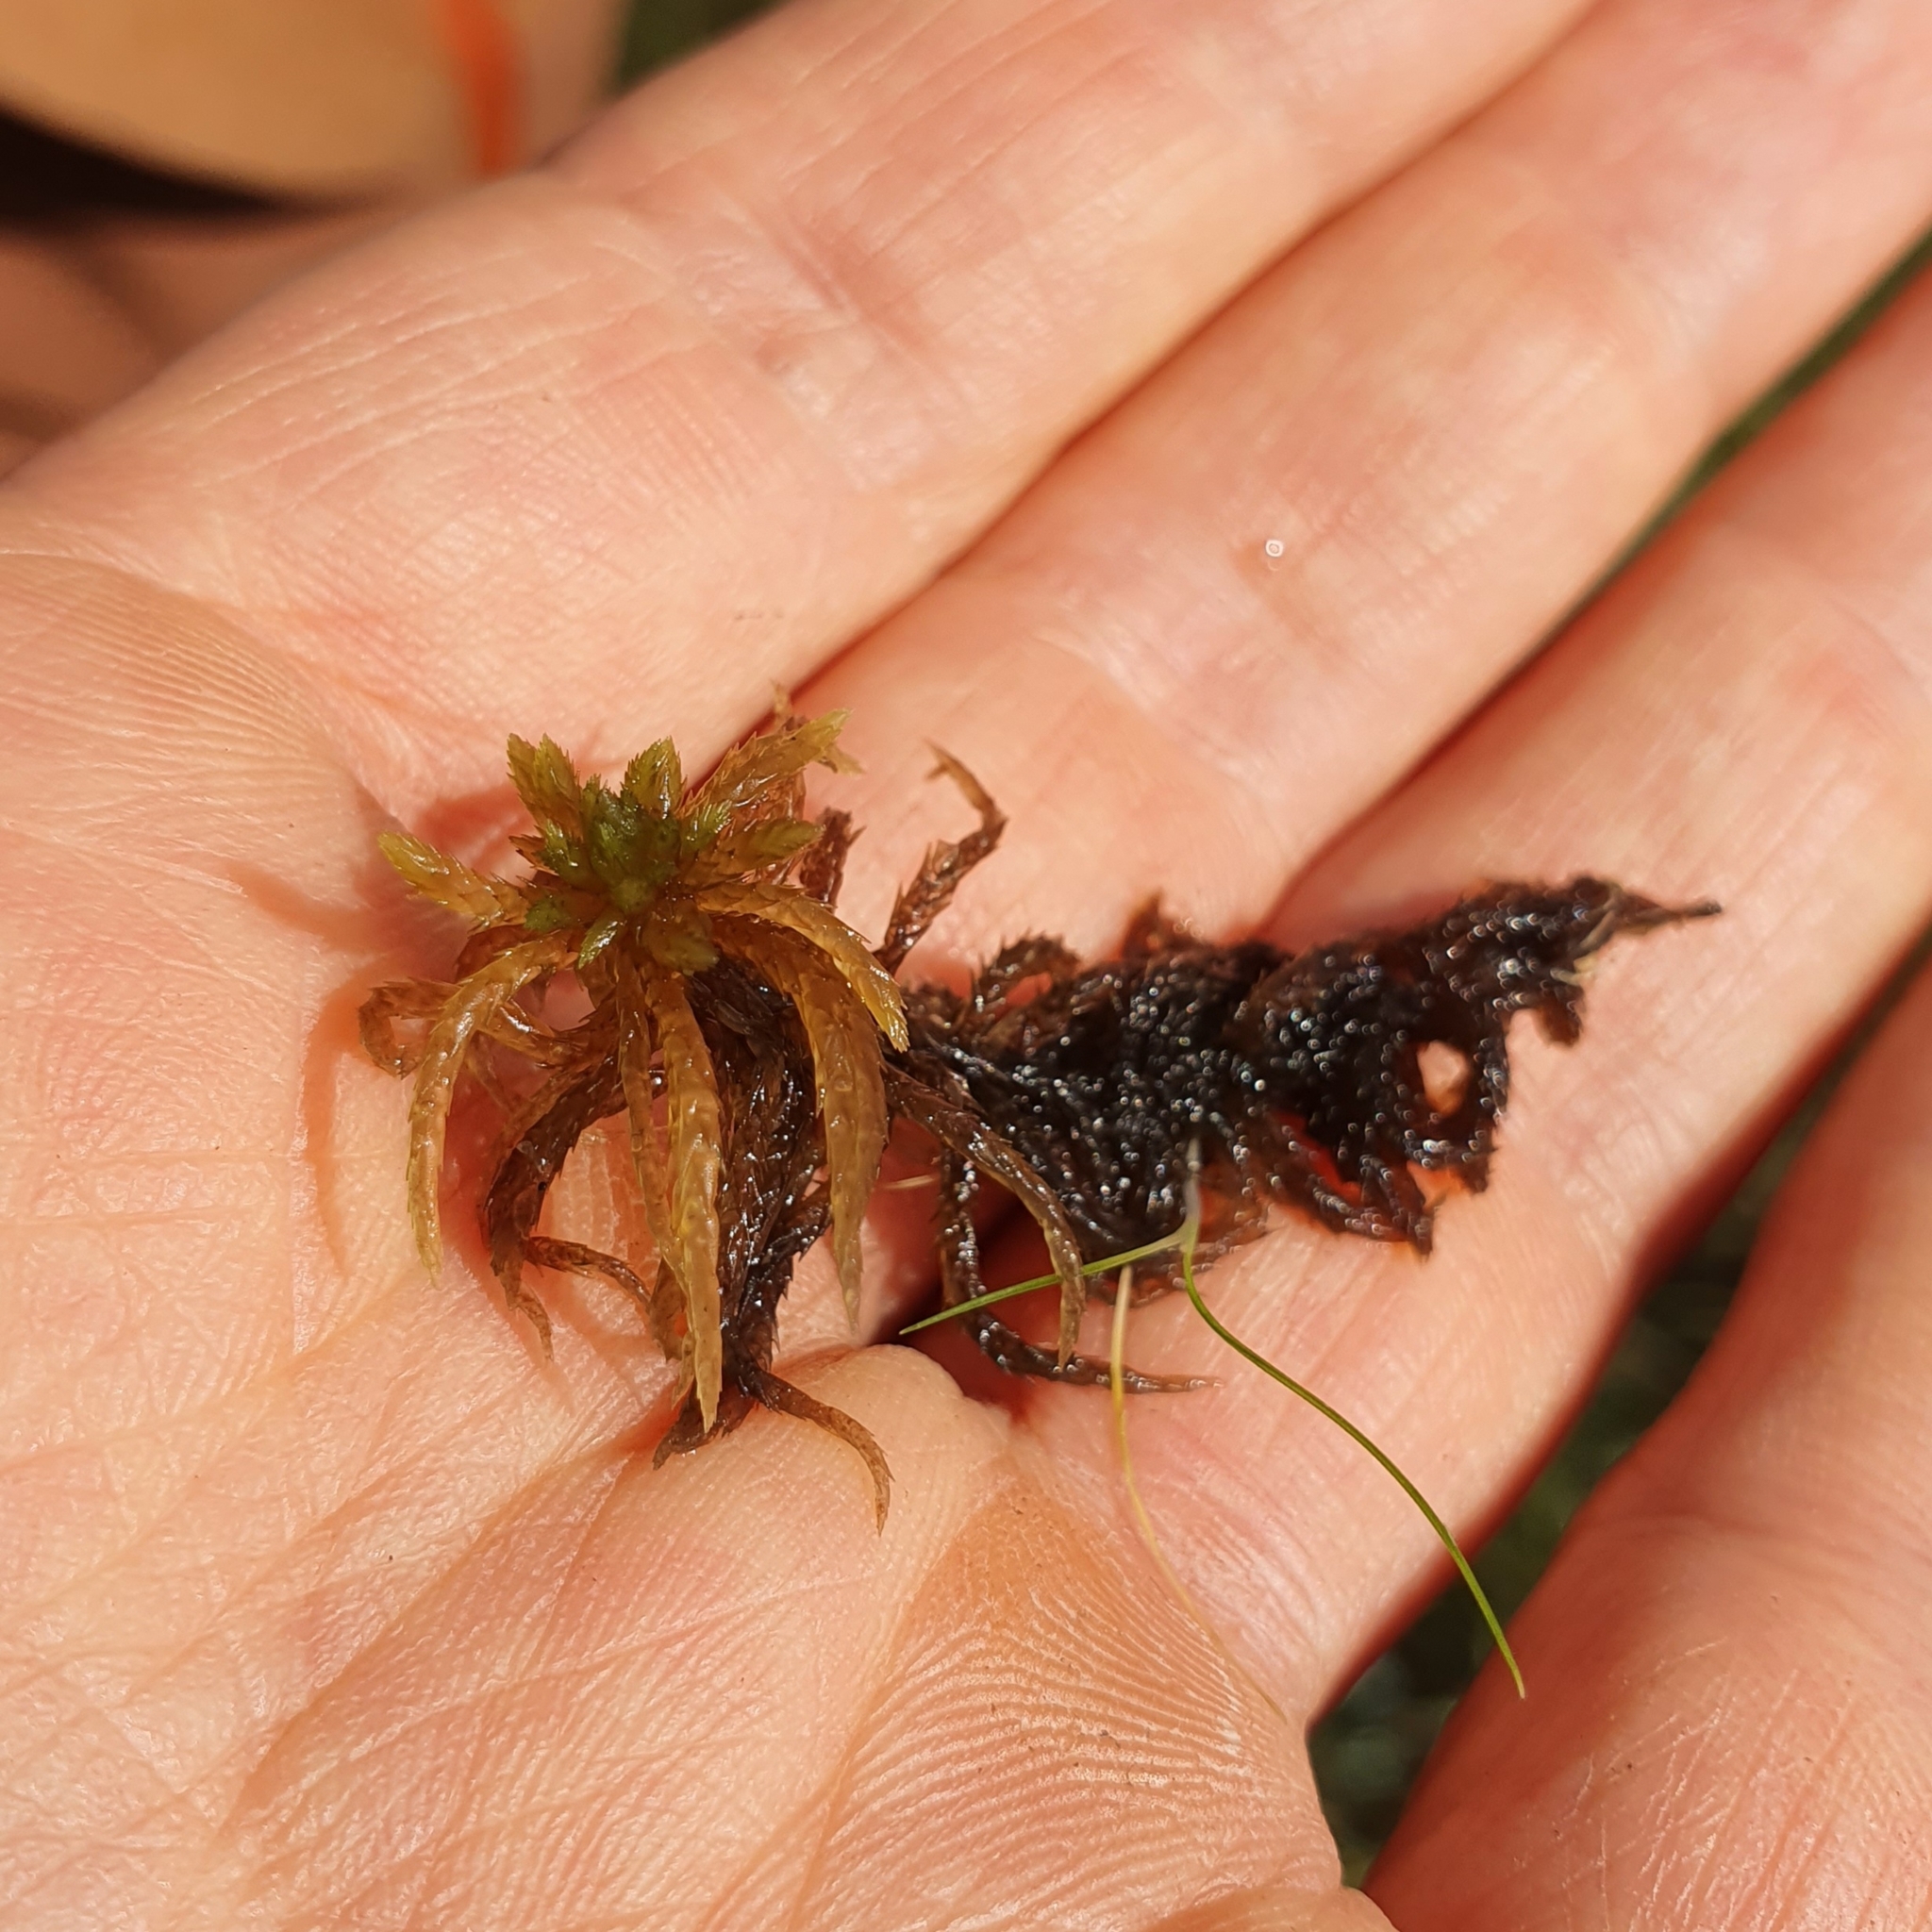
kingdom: Plantae
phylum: Bryophyta
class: Sphagnopsida
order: Sphagnales
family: Sphagnaceae
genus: Sphagnum
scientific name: Sphagnum teres
